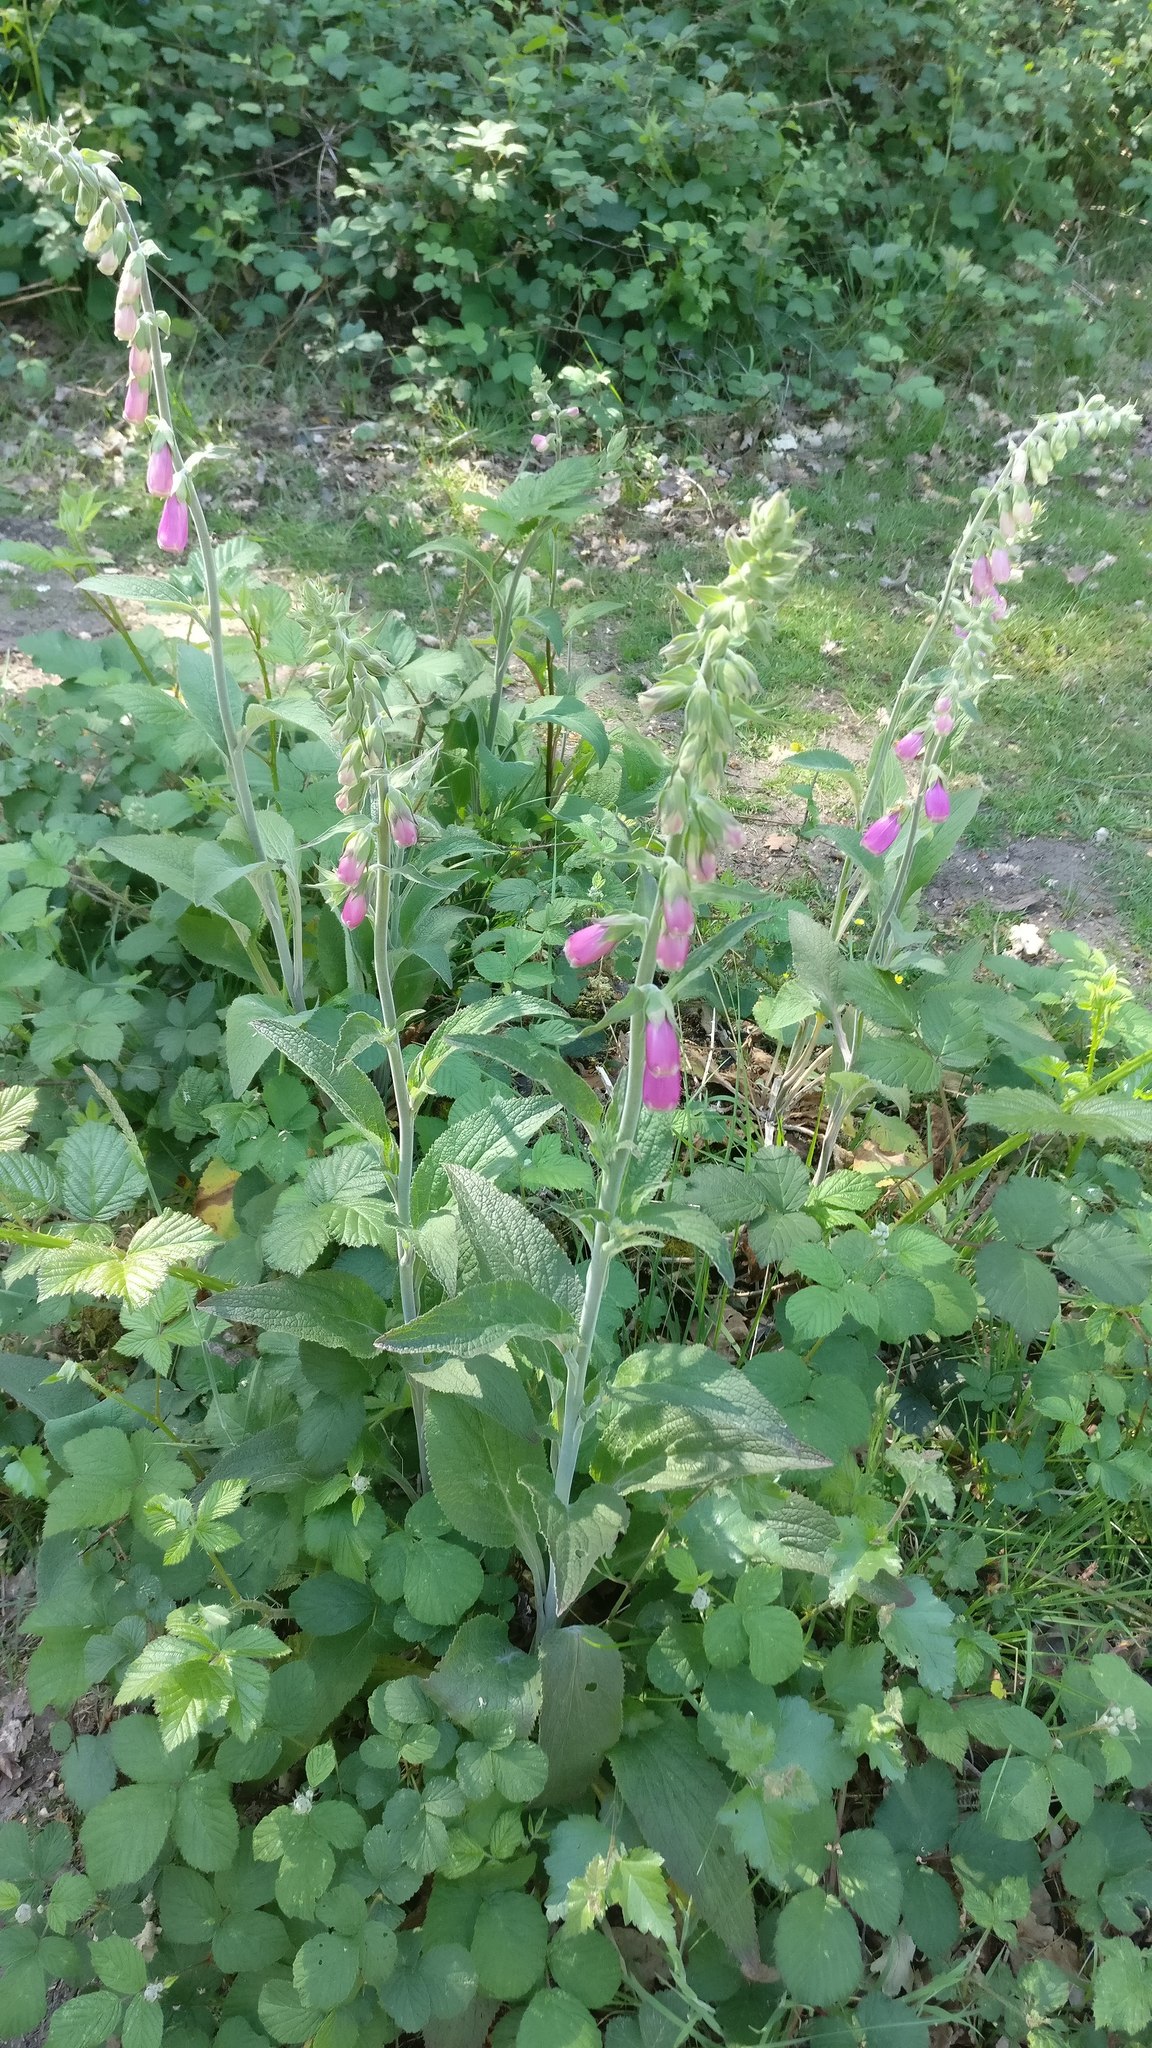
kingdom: Plantae
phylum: Tracheophyta
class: Magnoliopsida
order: Lamiales
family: Plantaginaceae
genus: Digitalis
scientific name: Digitalis purpurea
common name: Foxglove
